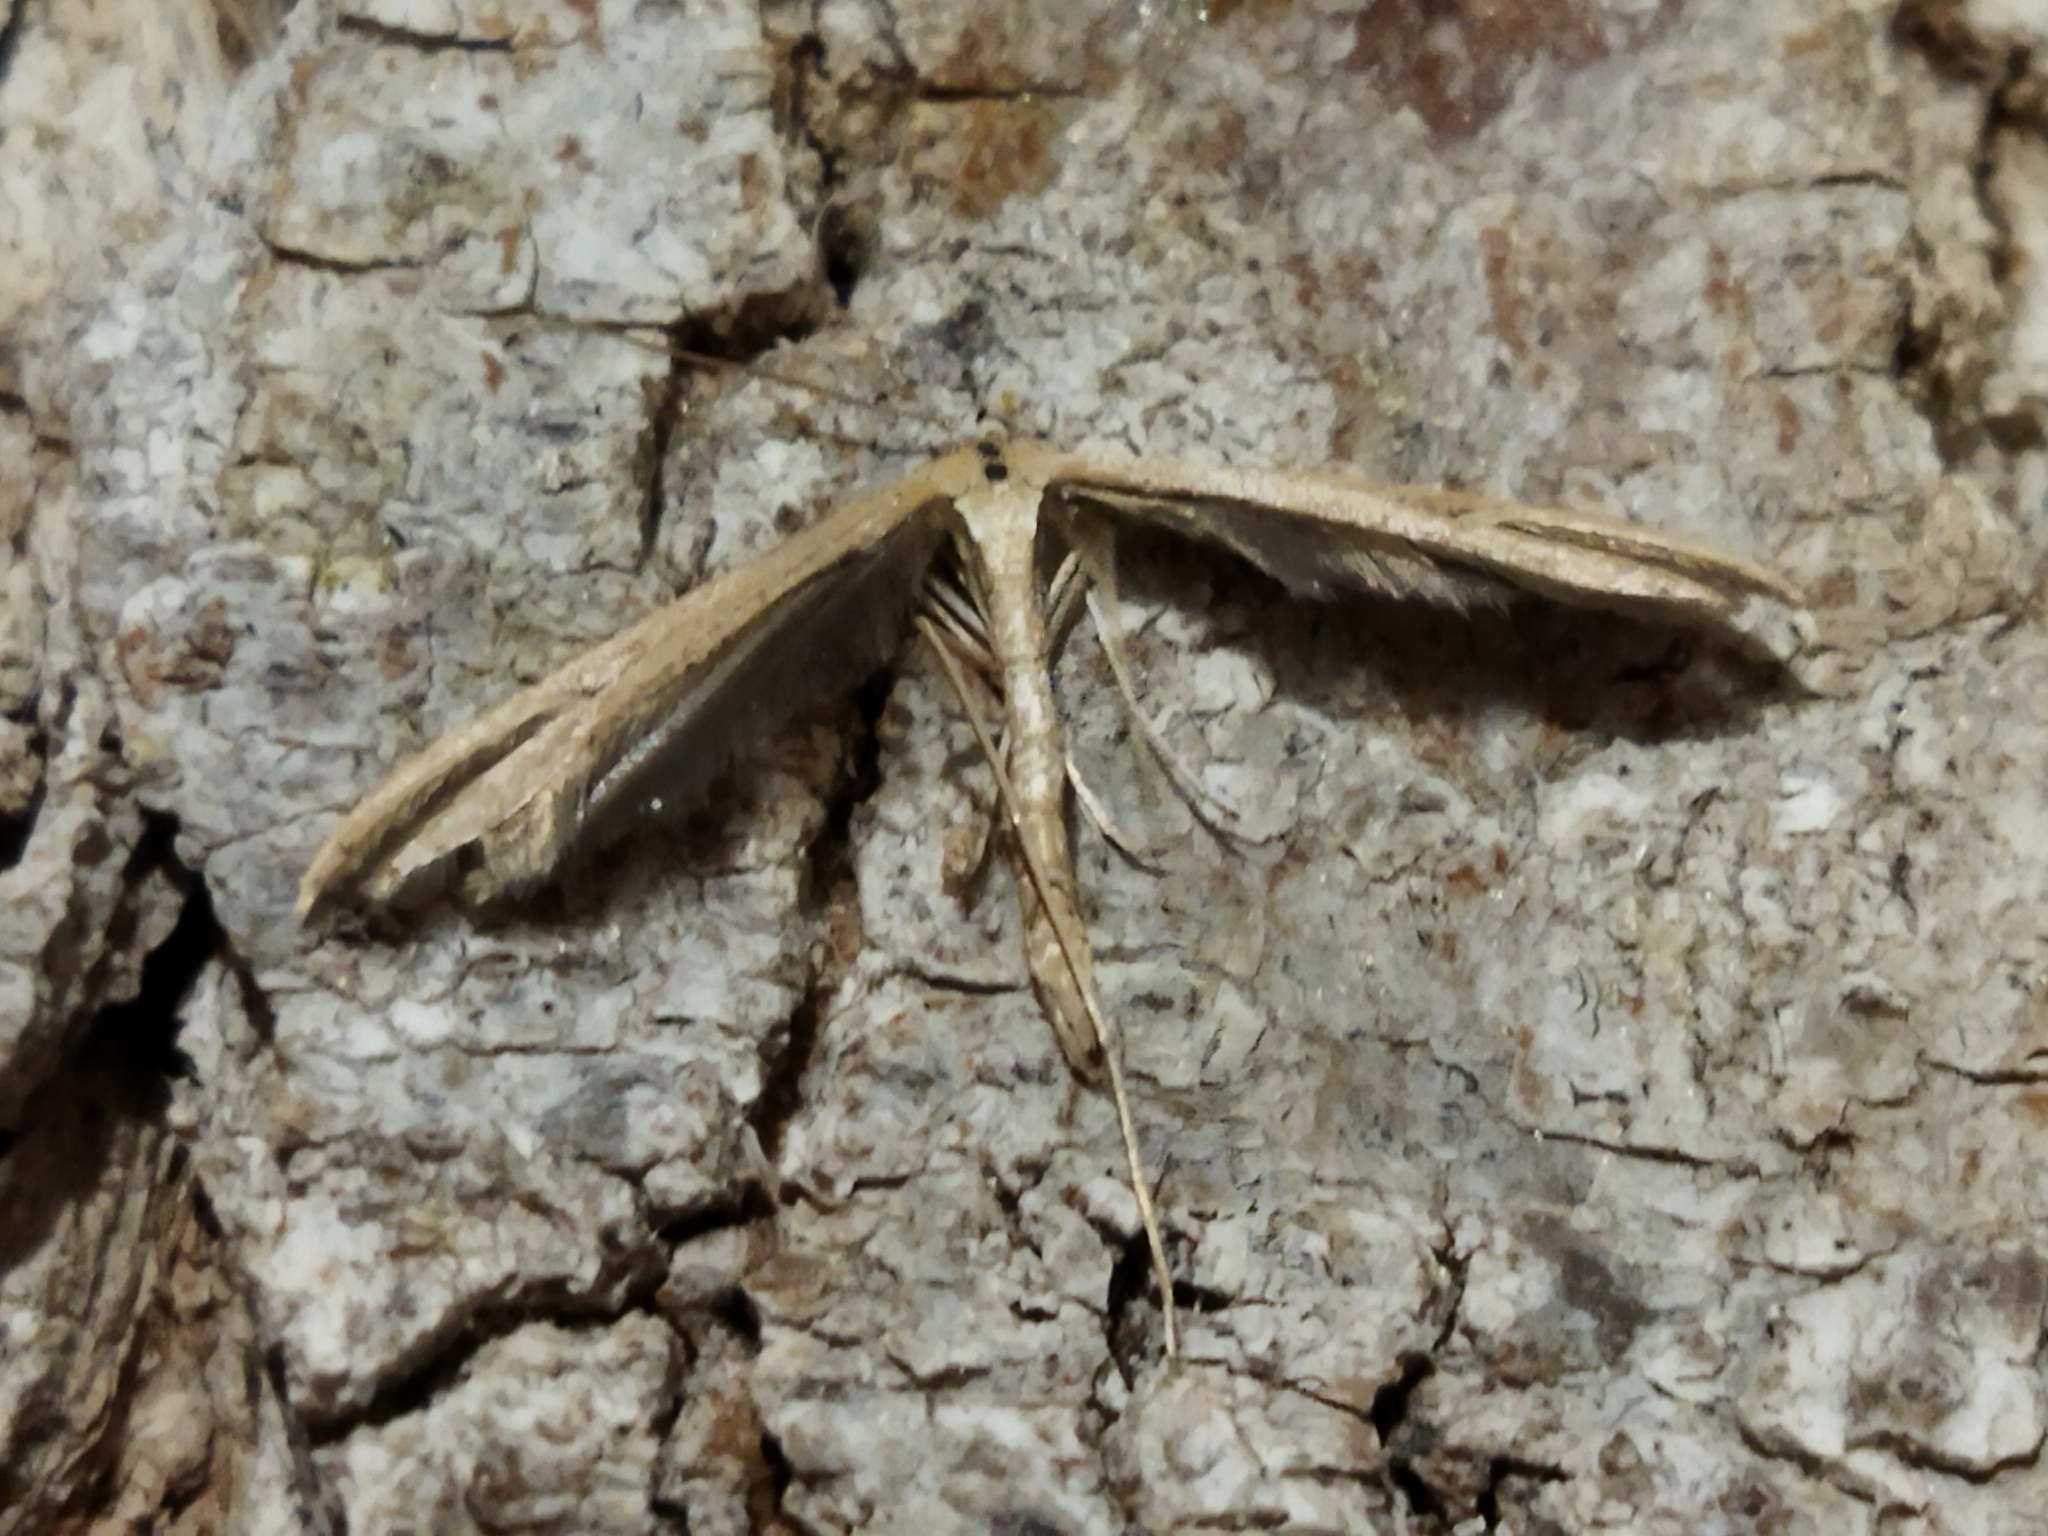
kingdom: Animalia
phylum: Arthropoda
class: Insecta
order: Lepidoptera
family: Pterophoridae
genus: Emmelina
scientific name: Emmelina monodactyla
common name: Common plume
